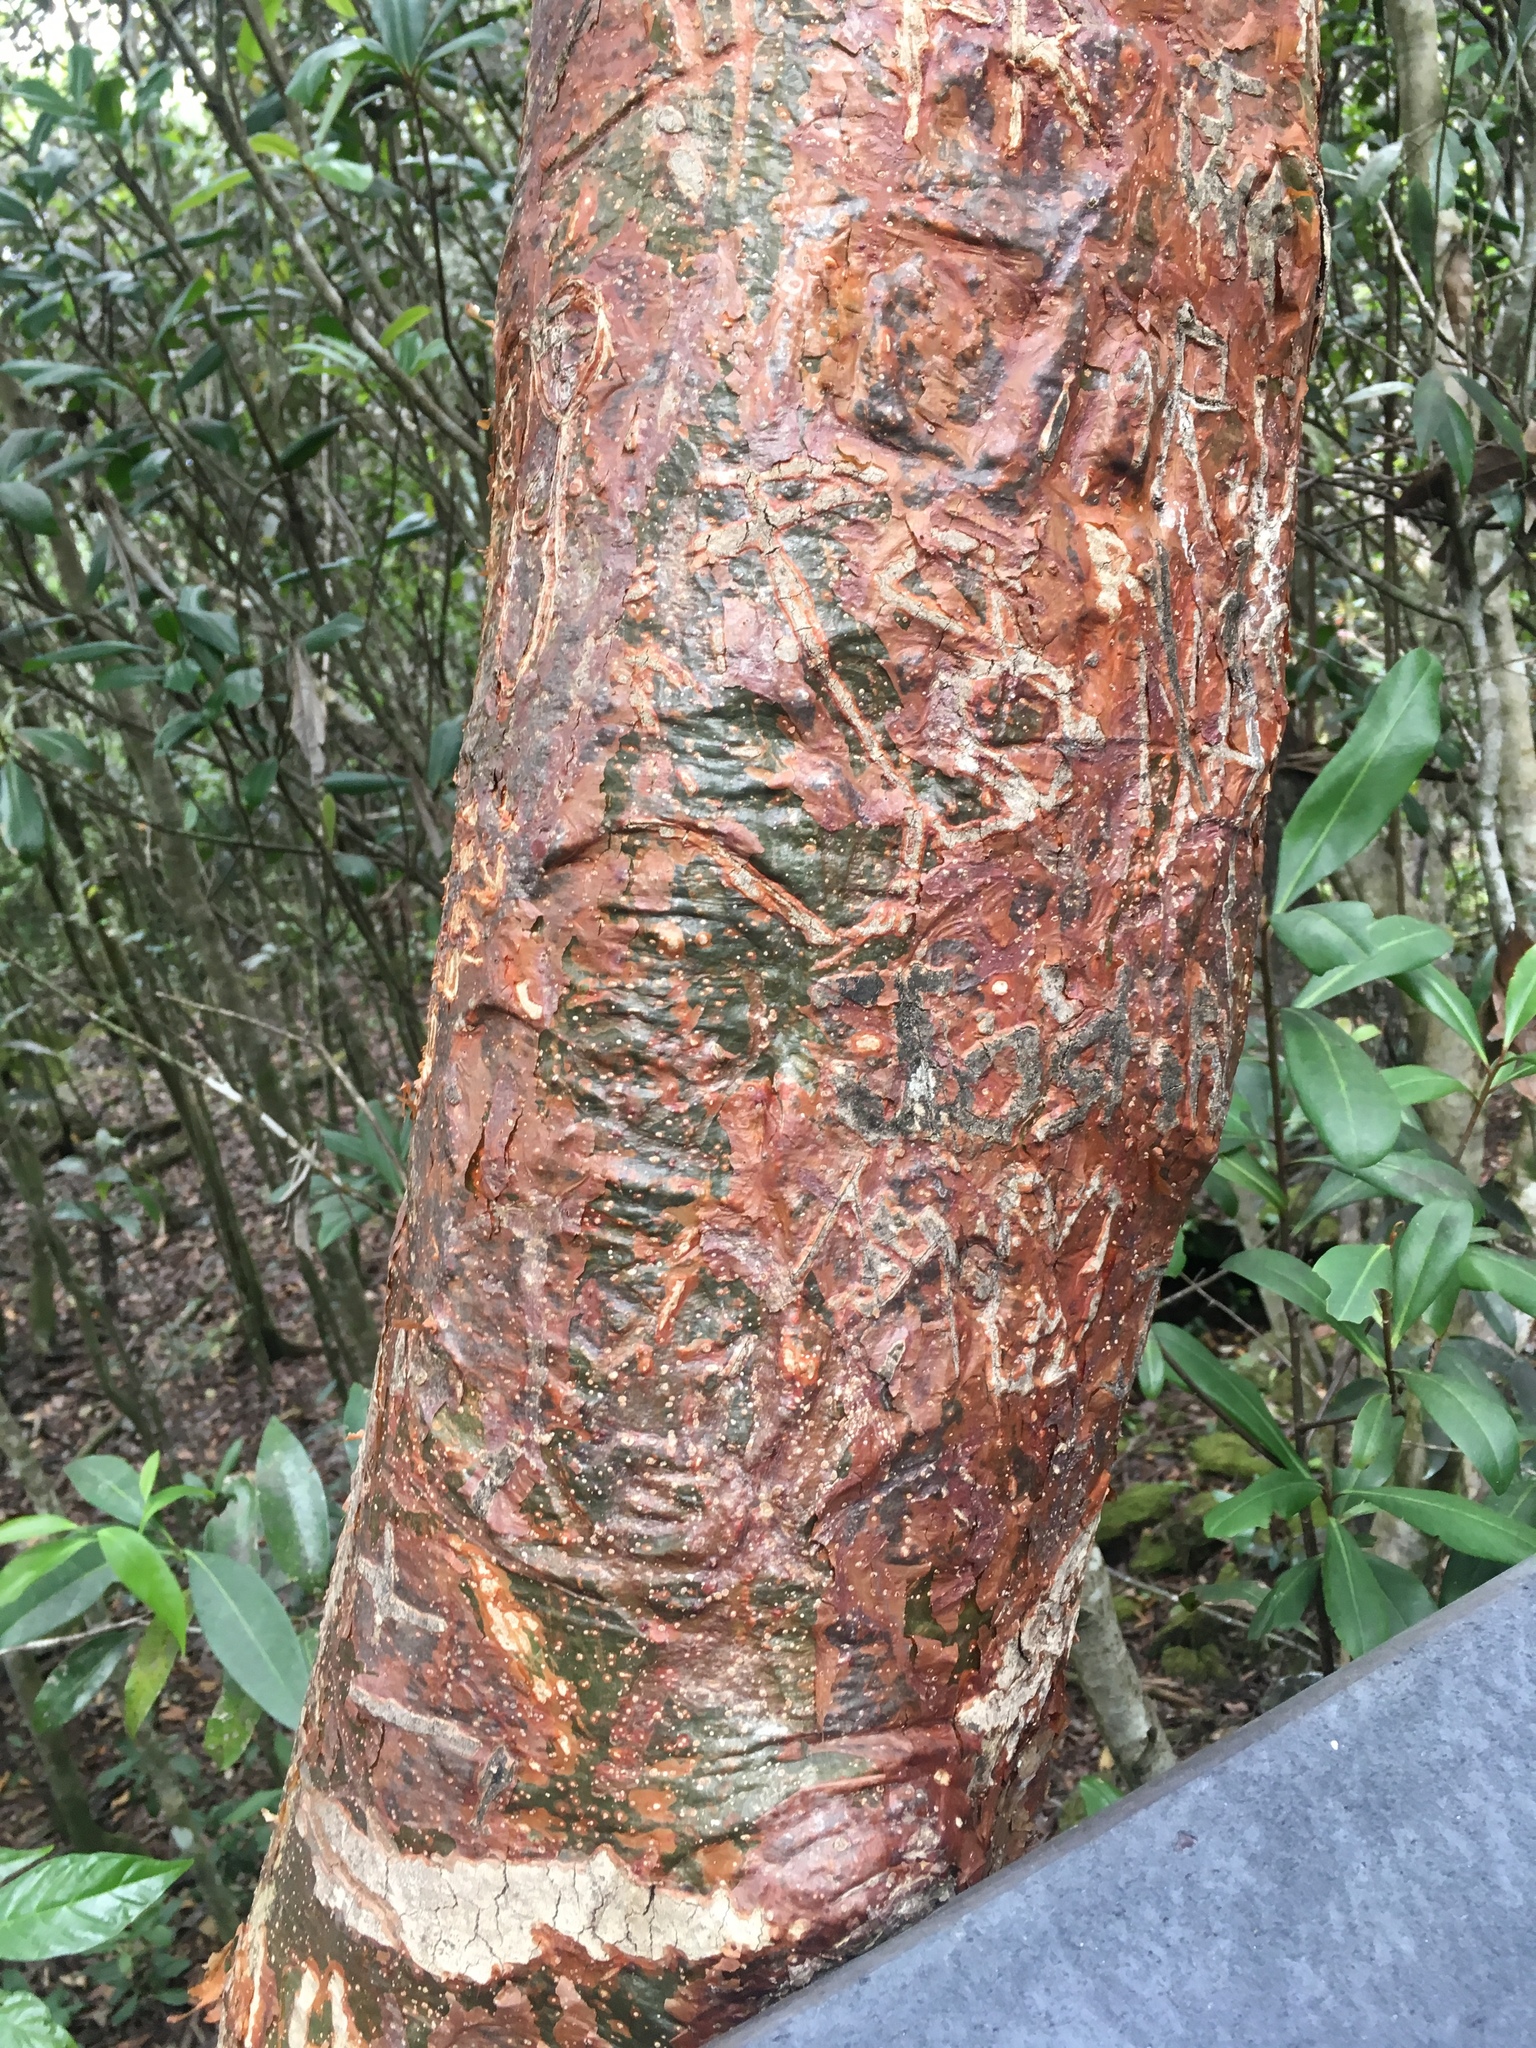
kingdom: Plantae
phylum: Tracheophyta
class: Magnoliopsida
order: Sapindales
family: Burseraceae
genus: Bursera
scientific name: Bursera simaruba
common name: Turpentine tree
